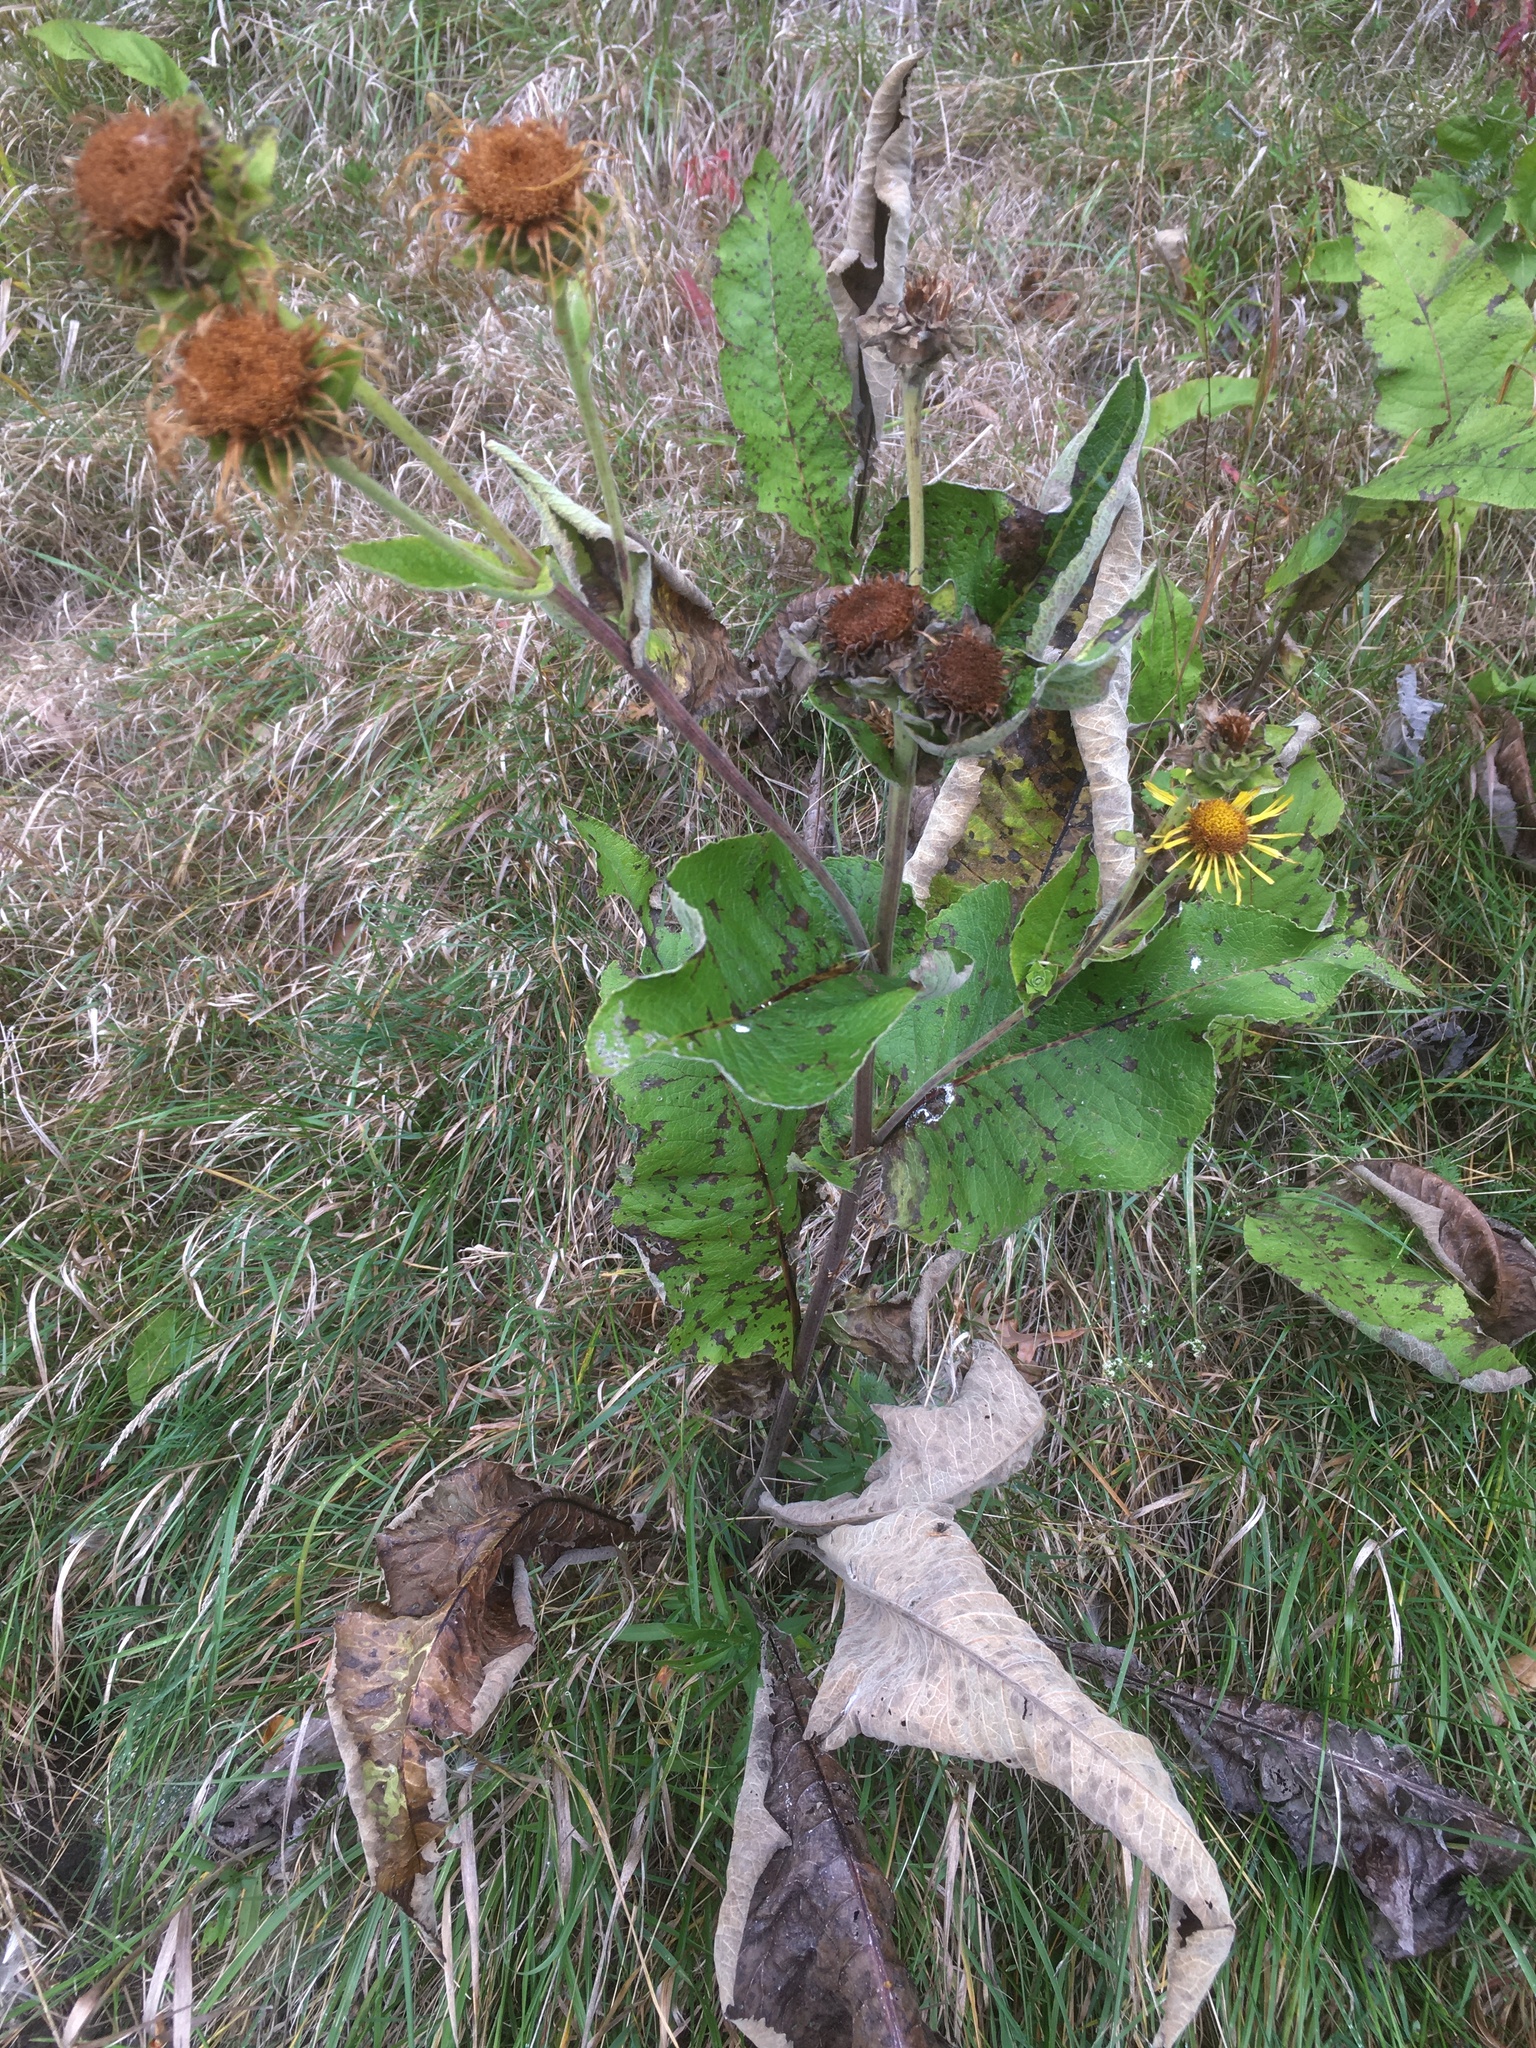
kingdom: Plantae
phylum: Tracheophyta
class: Magnoliopsida
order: Asterales
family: Asteraceae
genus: Inula
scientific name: Inula helenium
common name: Elecampane
